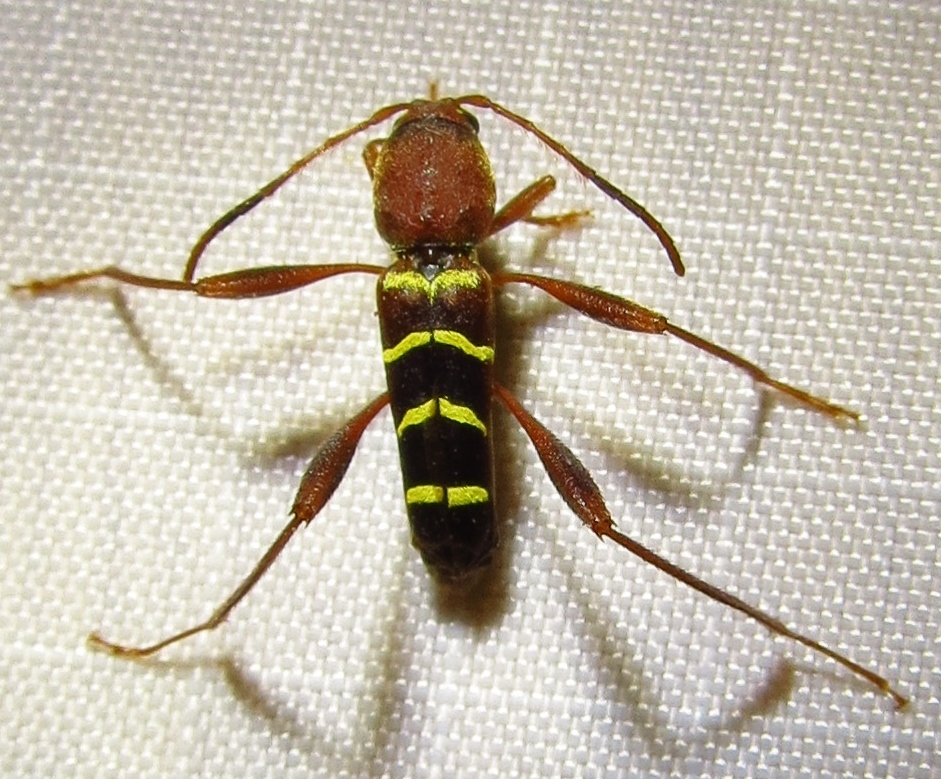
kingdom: Animalia
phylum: Arthropoda
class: Insecta
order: Coleoptera
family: Cerambycidae
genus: Neoclytus
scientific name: Neoclytus acuminatus
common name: Read-headed ash borer
